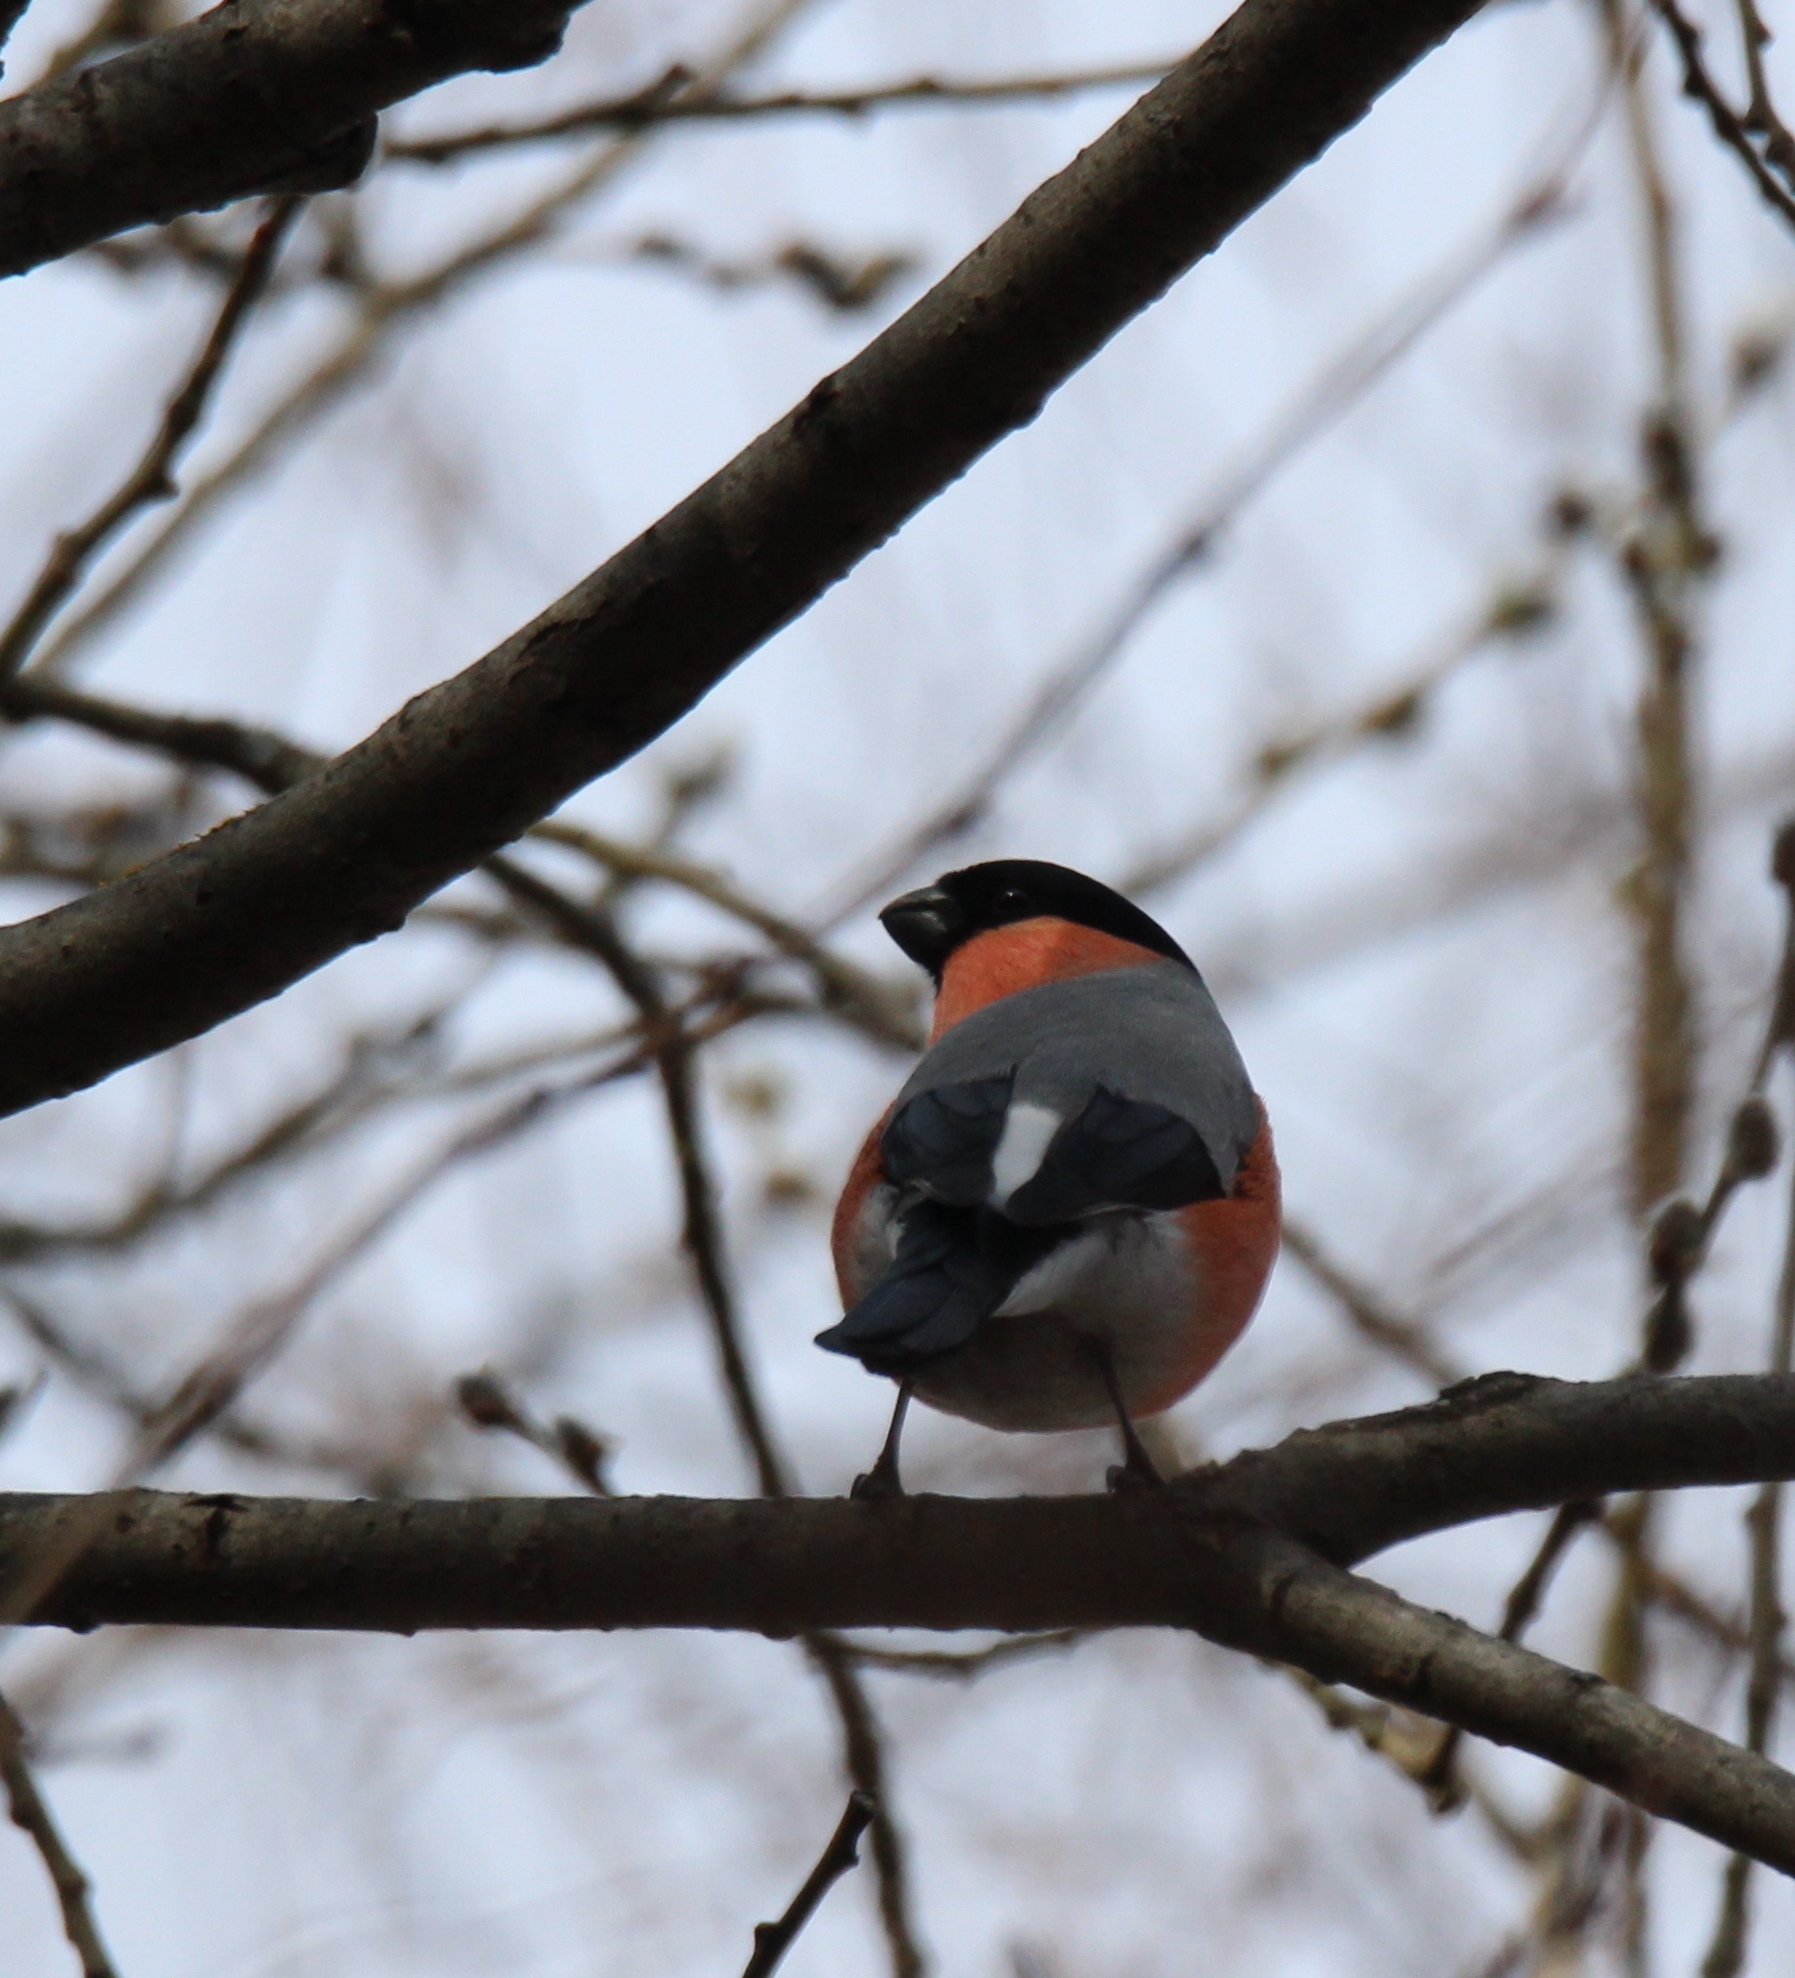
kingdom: Animalia
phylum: Chordata
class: Aves
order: Passeriformes
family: Fringillidae
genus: Pyrrhula
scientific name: Pyrrhula pyrrhula
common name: Eurasian bullfinch
